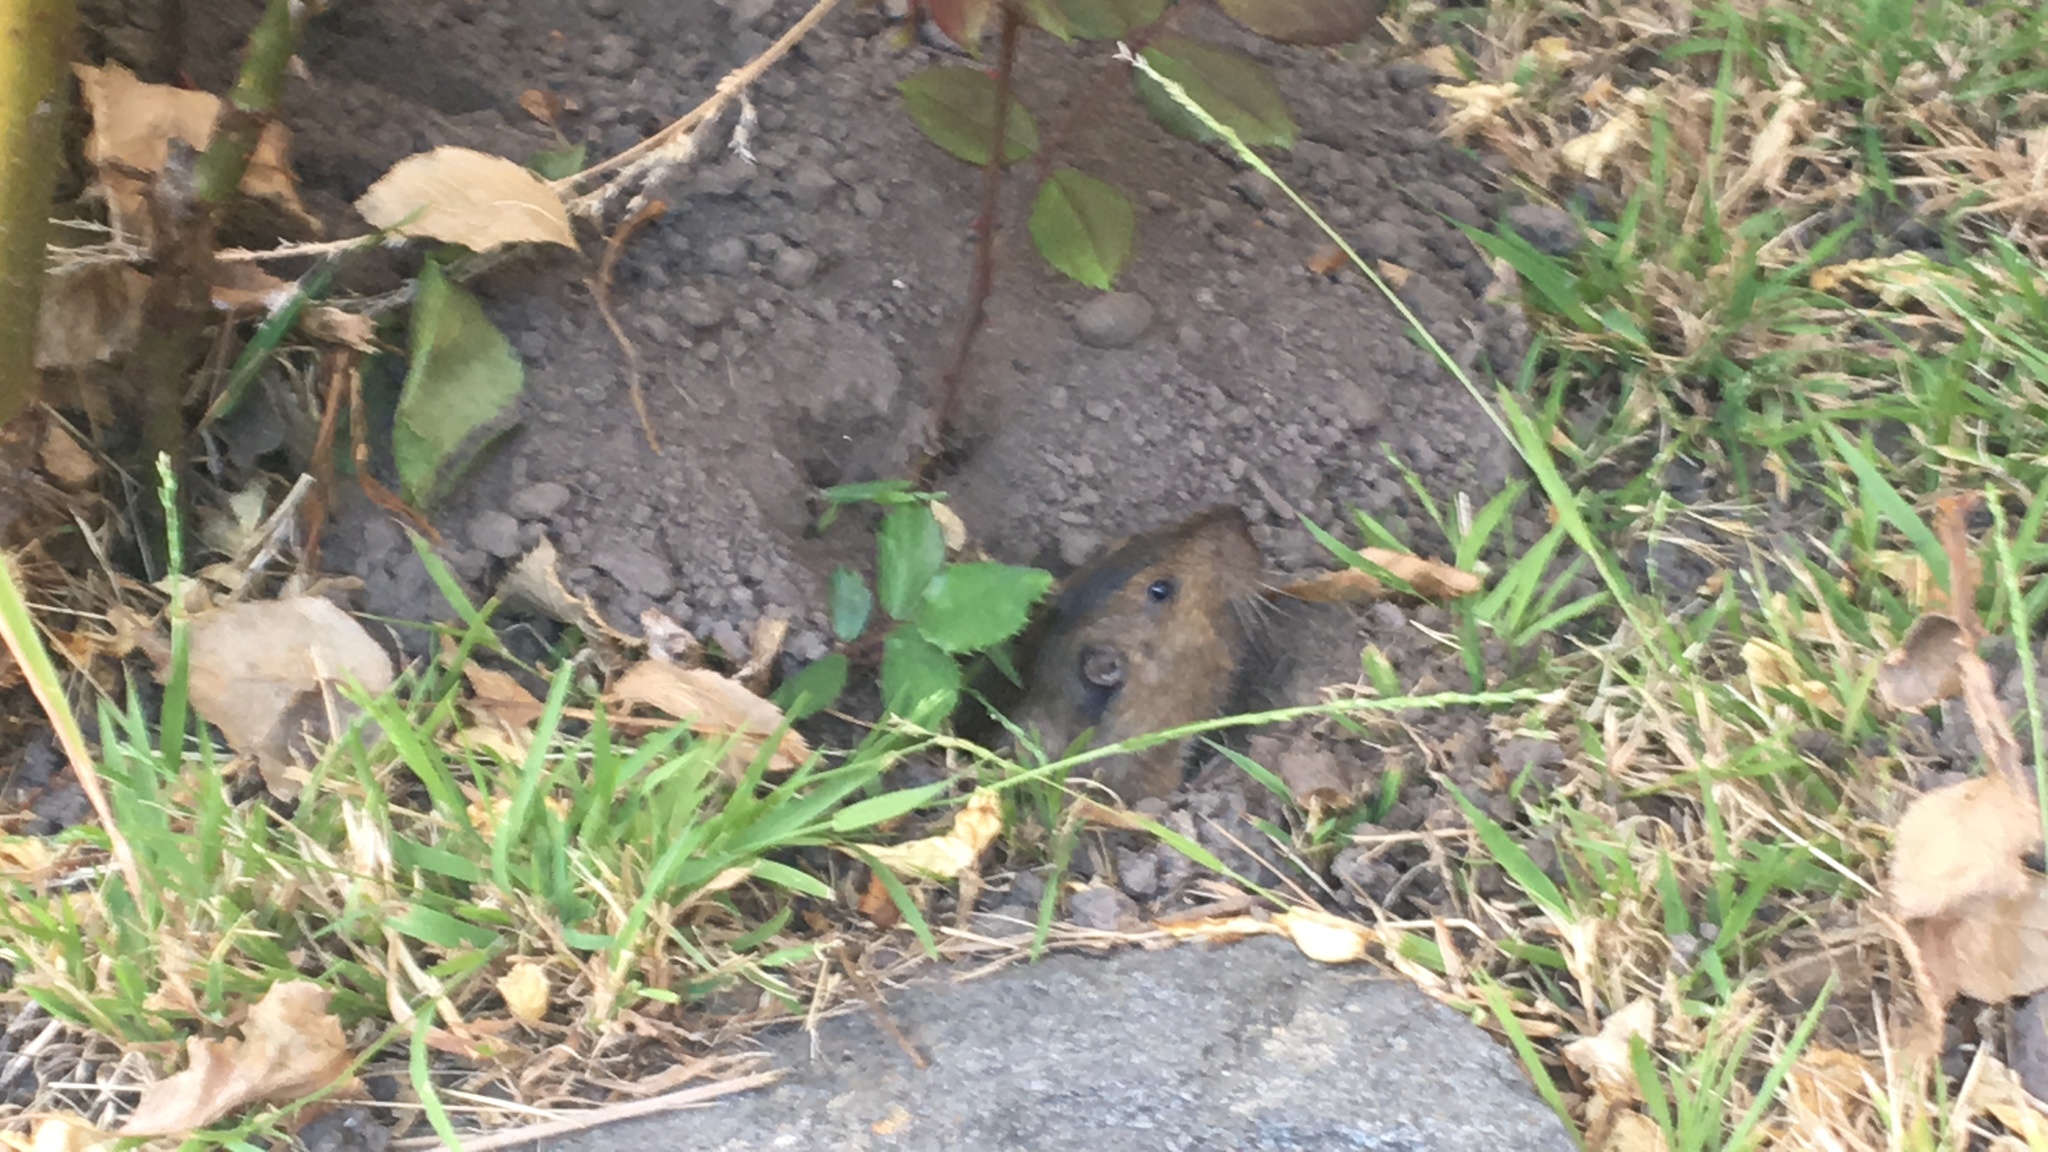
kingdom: Animalia
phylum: Chordata
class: Mammalia
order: Rodentia
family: Geomyidae
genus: Thomomys
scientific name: Thomomys bottae
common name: Botta's pocket gopher
